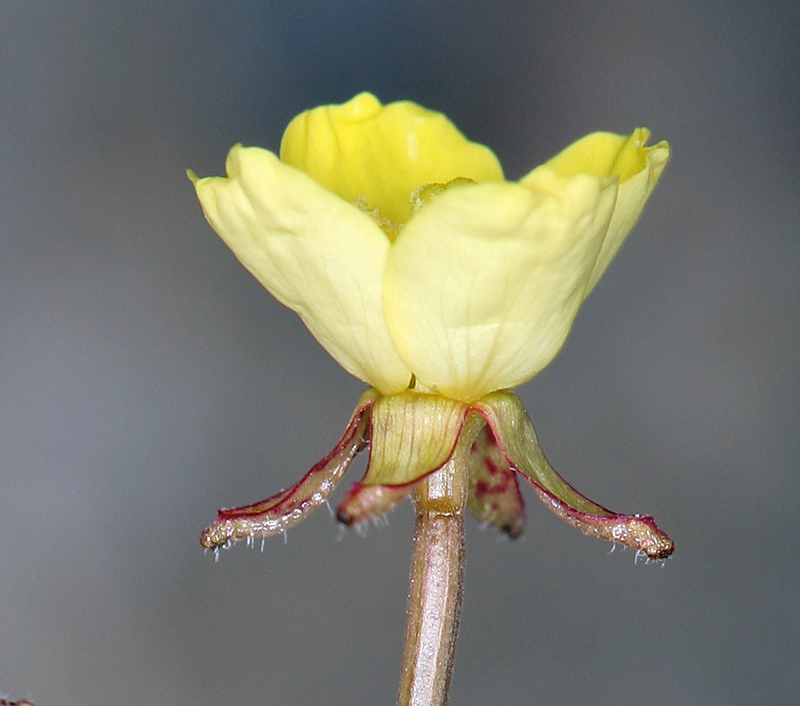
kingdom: Plantae
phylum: Tracheophyta
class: Magnoliopsida
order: Myrtales
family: Onagraceae
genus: Chylismia
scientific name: Chylismia walkeri
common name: Walker's suncup
